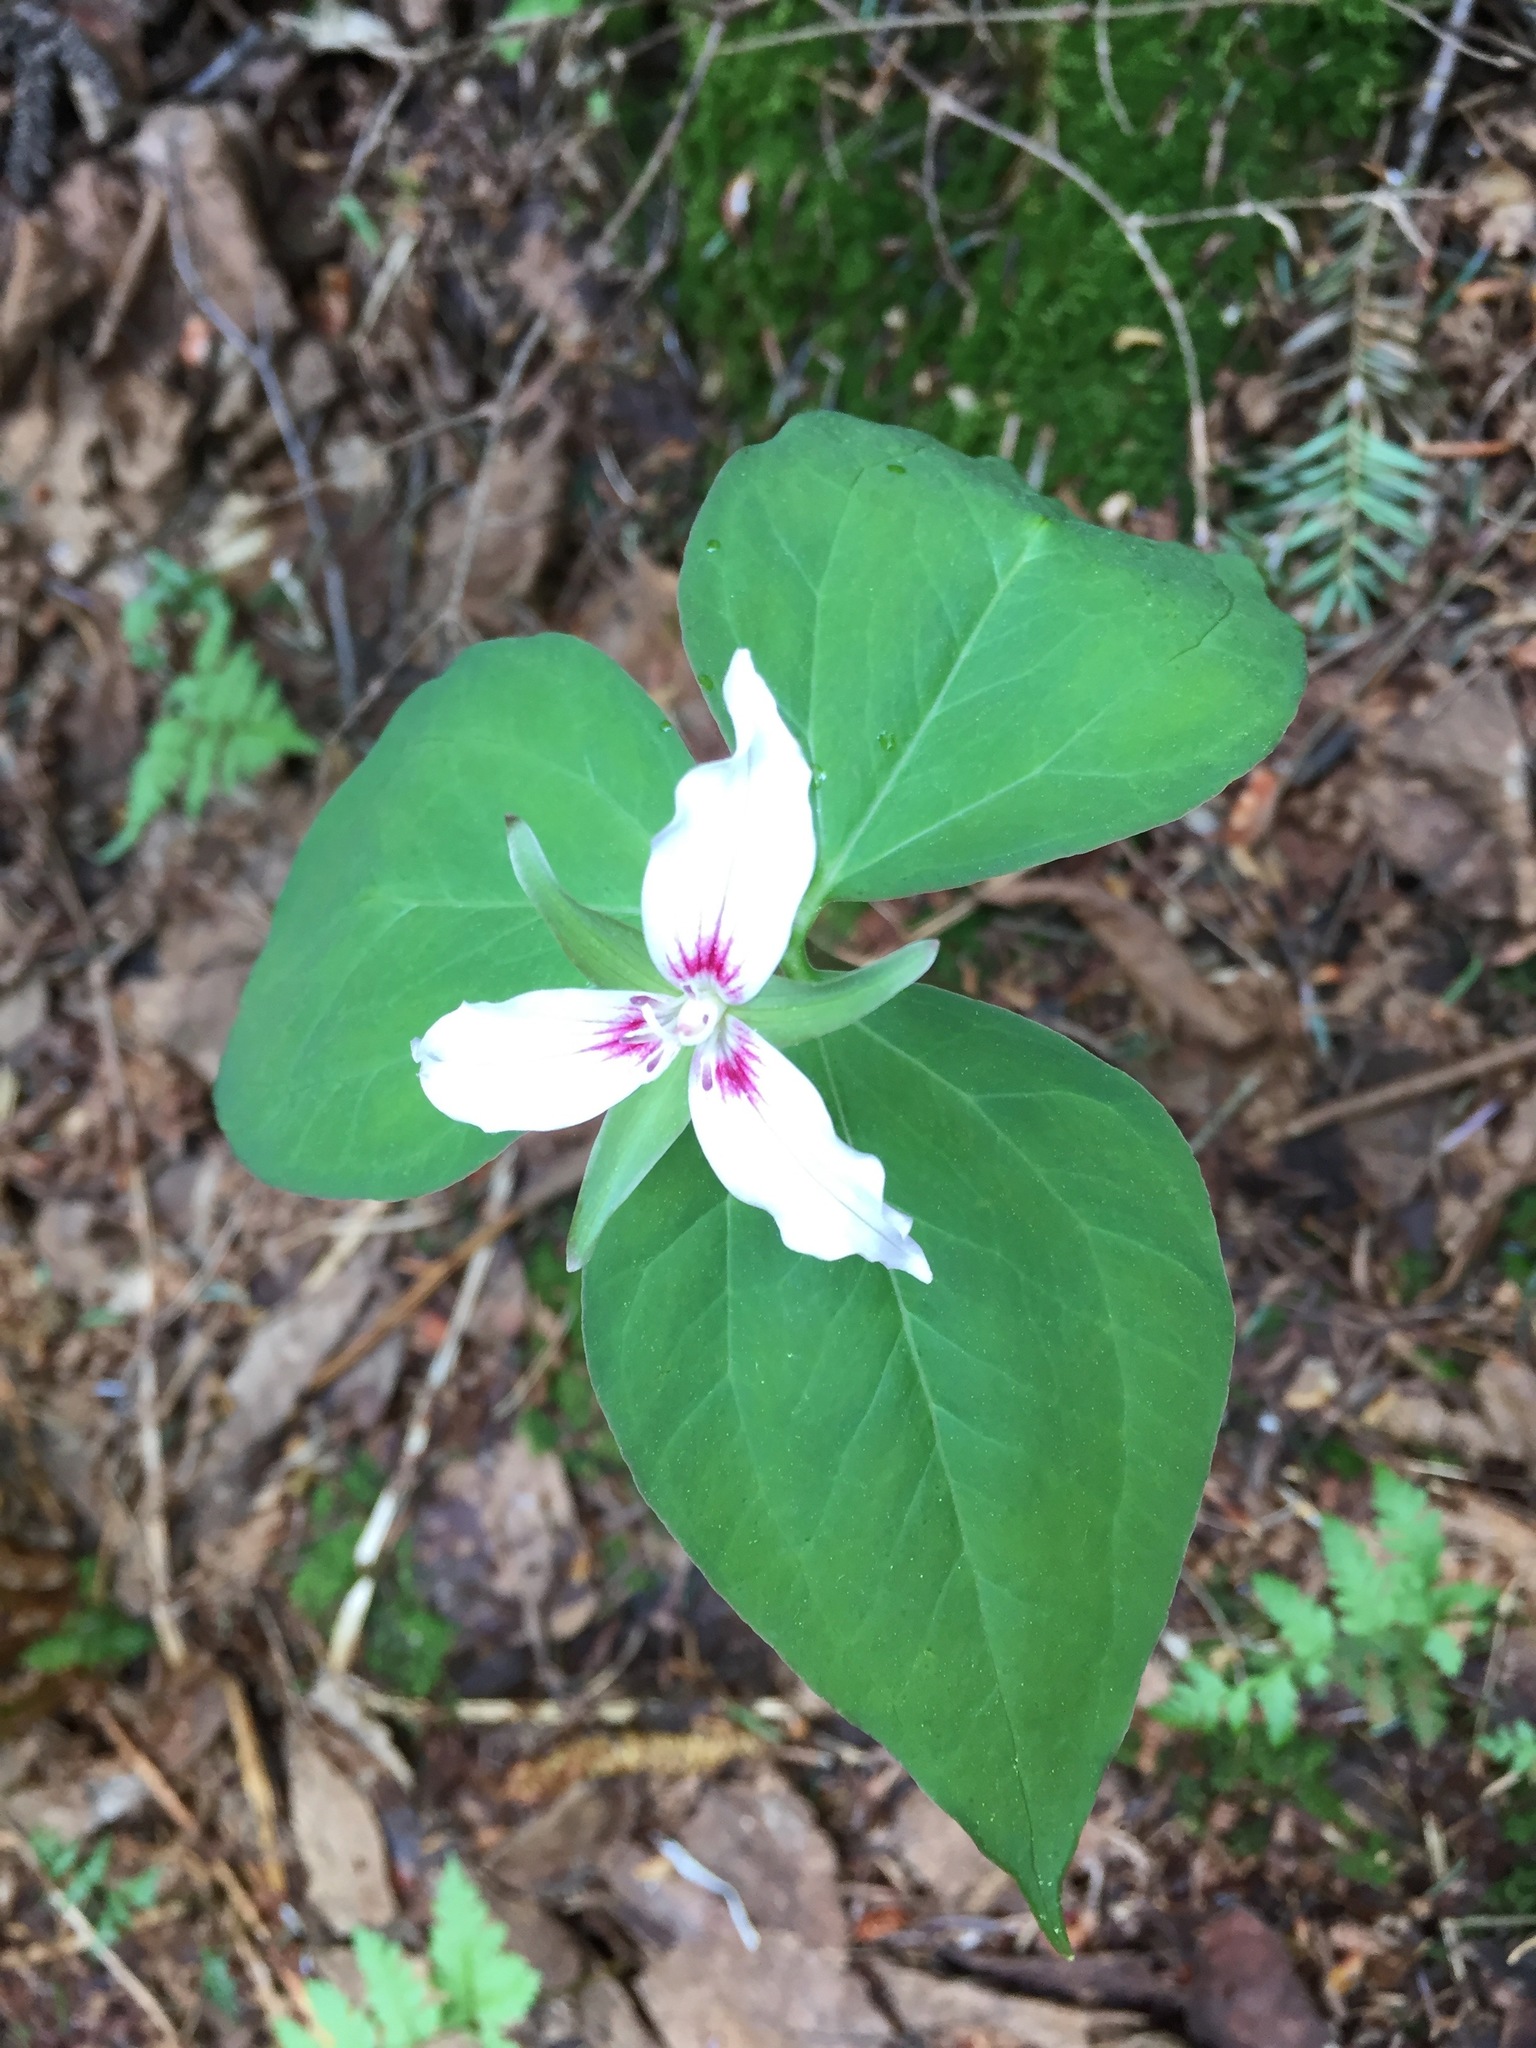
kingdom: Plantae
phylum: Tracheophyta
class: Liliopsida
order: Liliales
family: Melanthiaceae
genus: Trillium
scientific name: Trillium undulatum
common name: Paint trillium
